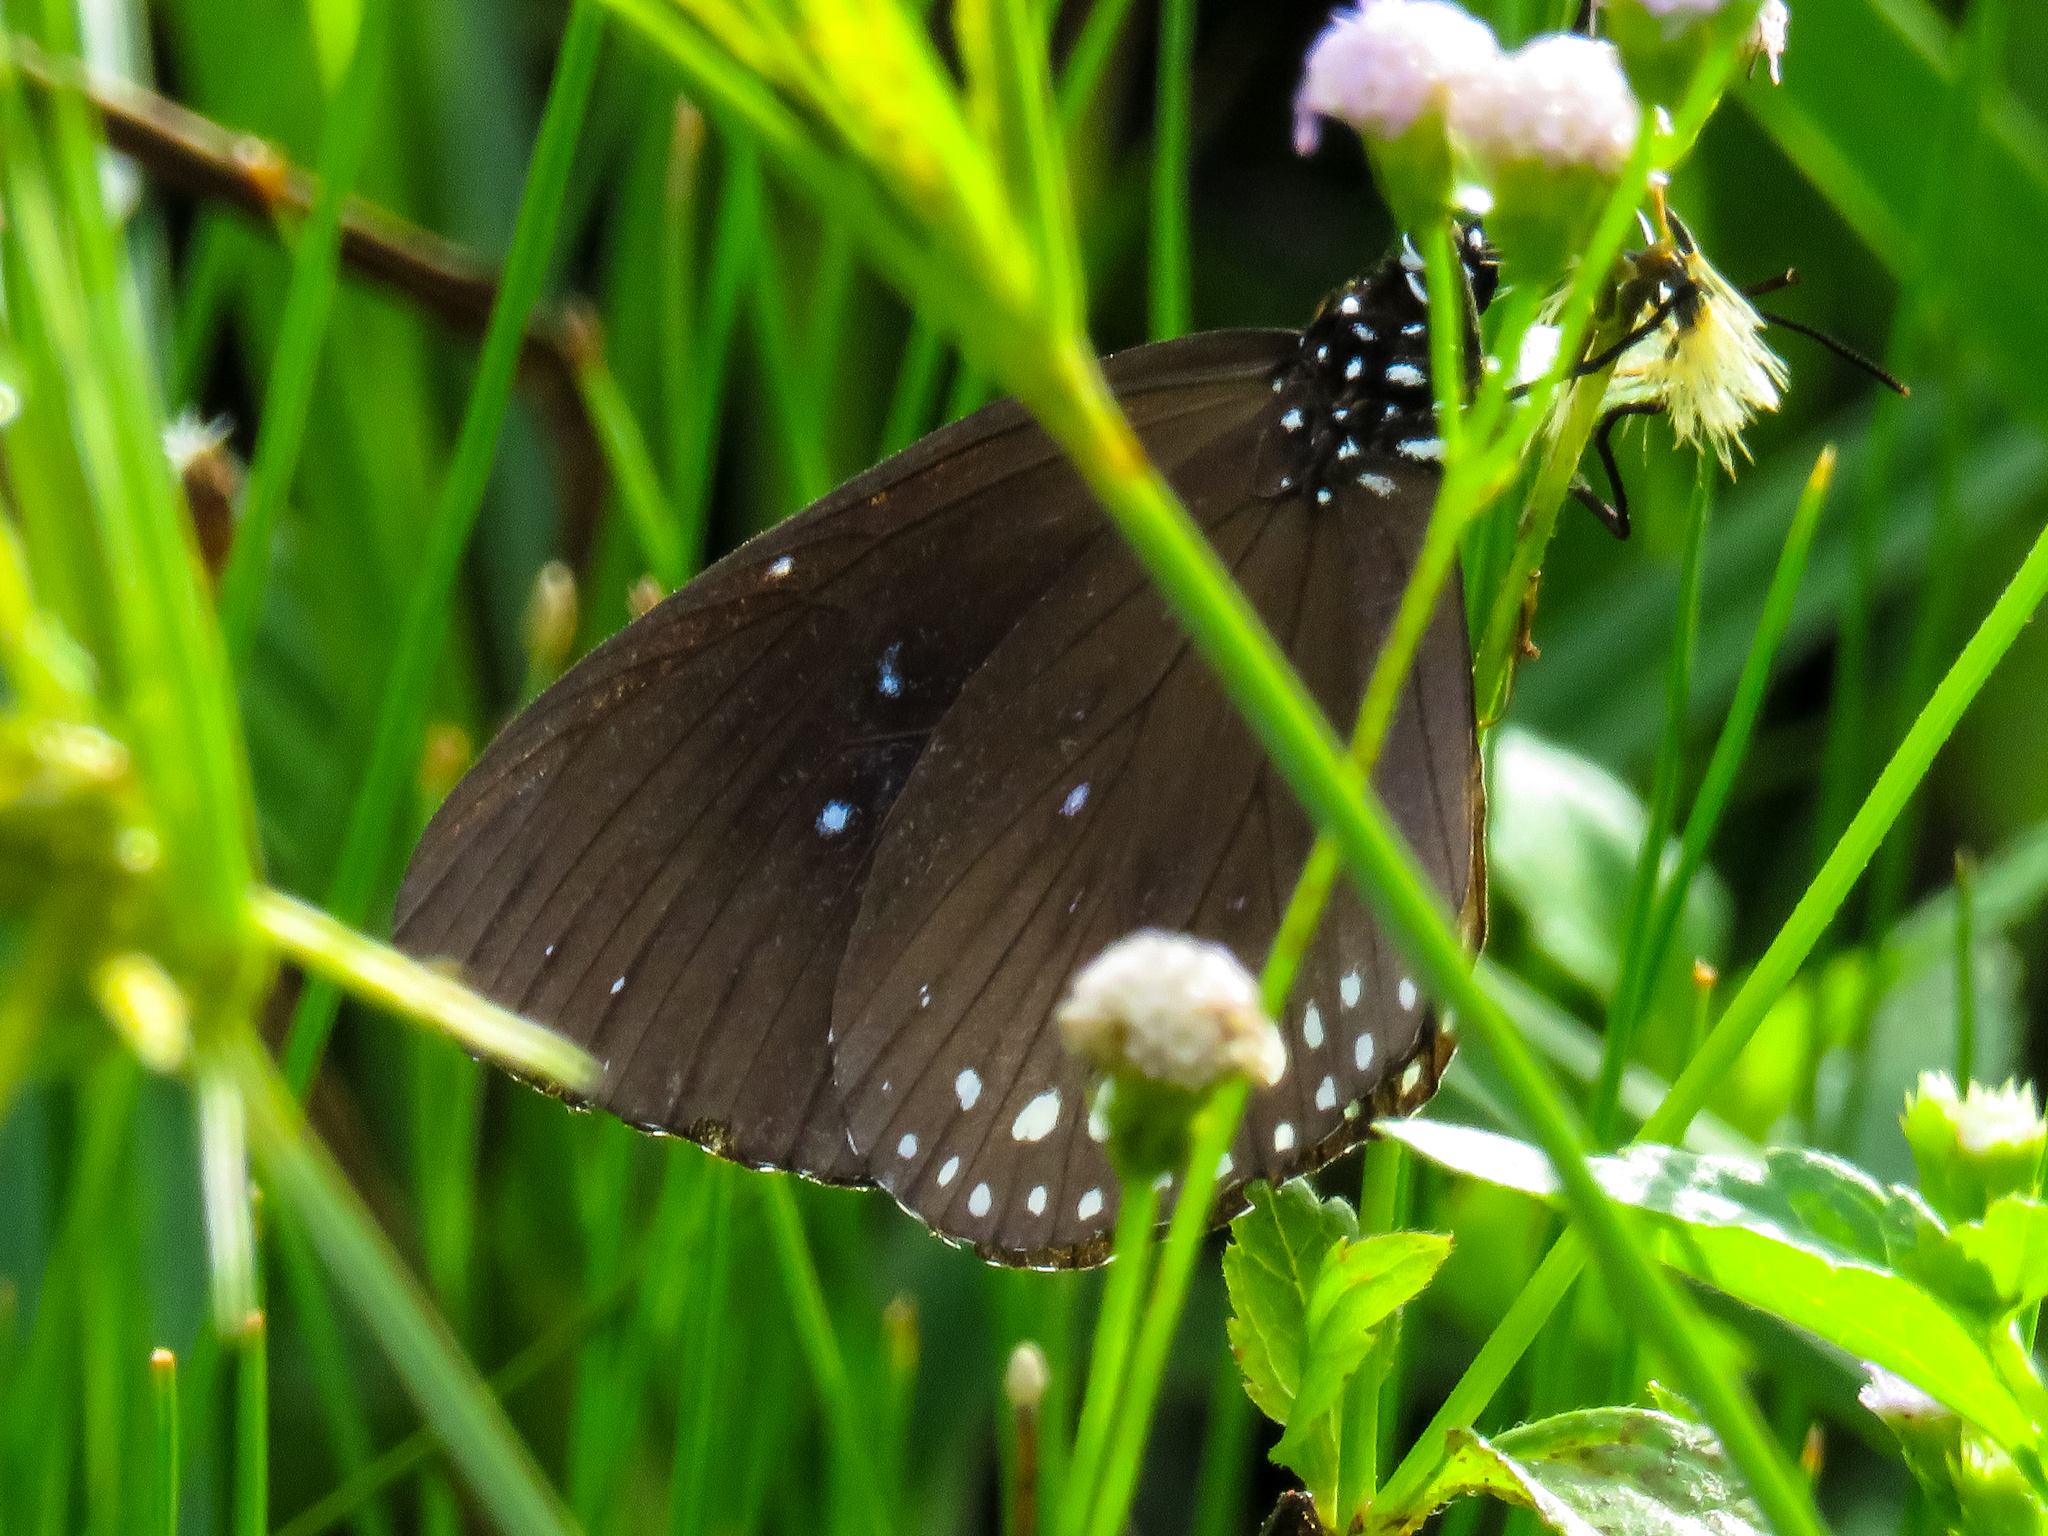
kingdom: Animalia
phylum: Arthropoda
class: Insecta
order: Lepidoptera
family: Nymphalidae
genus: Euploea
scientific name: Euploea modesta
